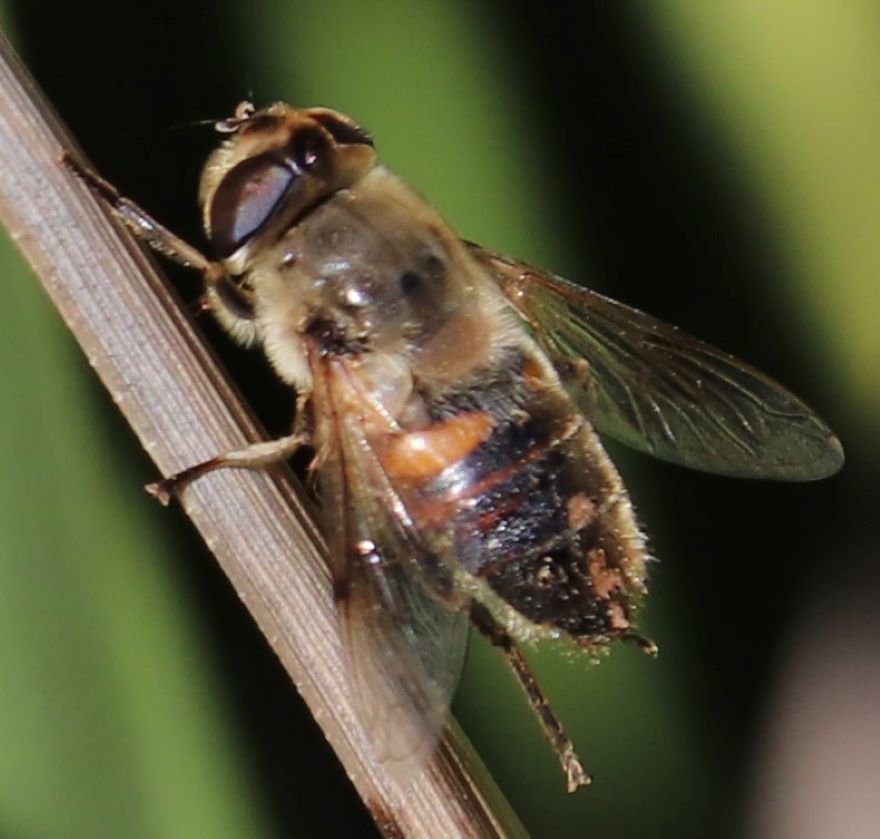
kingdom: Animalia
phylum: Arthropoda
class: Insecta
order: Diptera
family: Syrphidae
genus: Eristalis
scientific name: Eristalis tenax
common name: Drone fly
